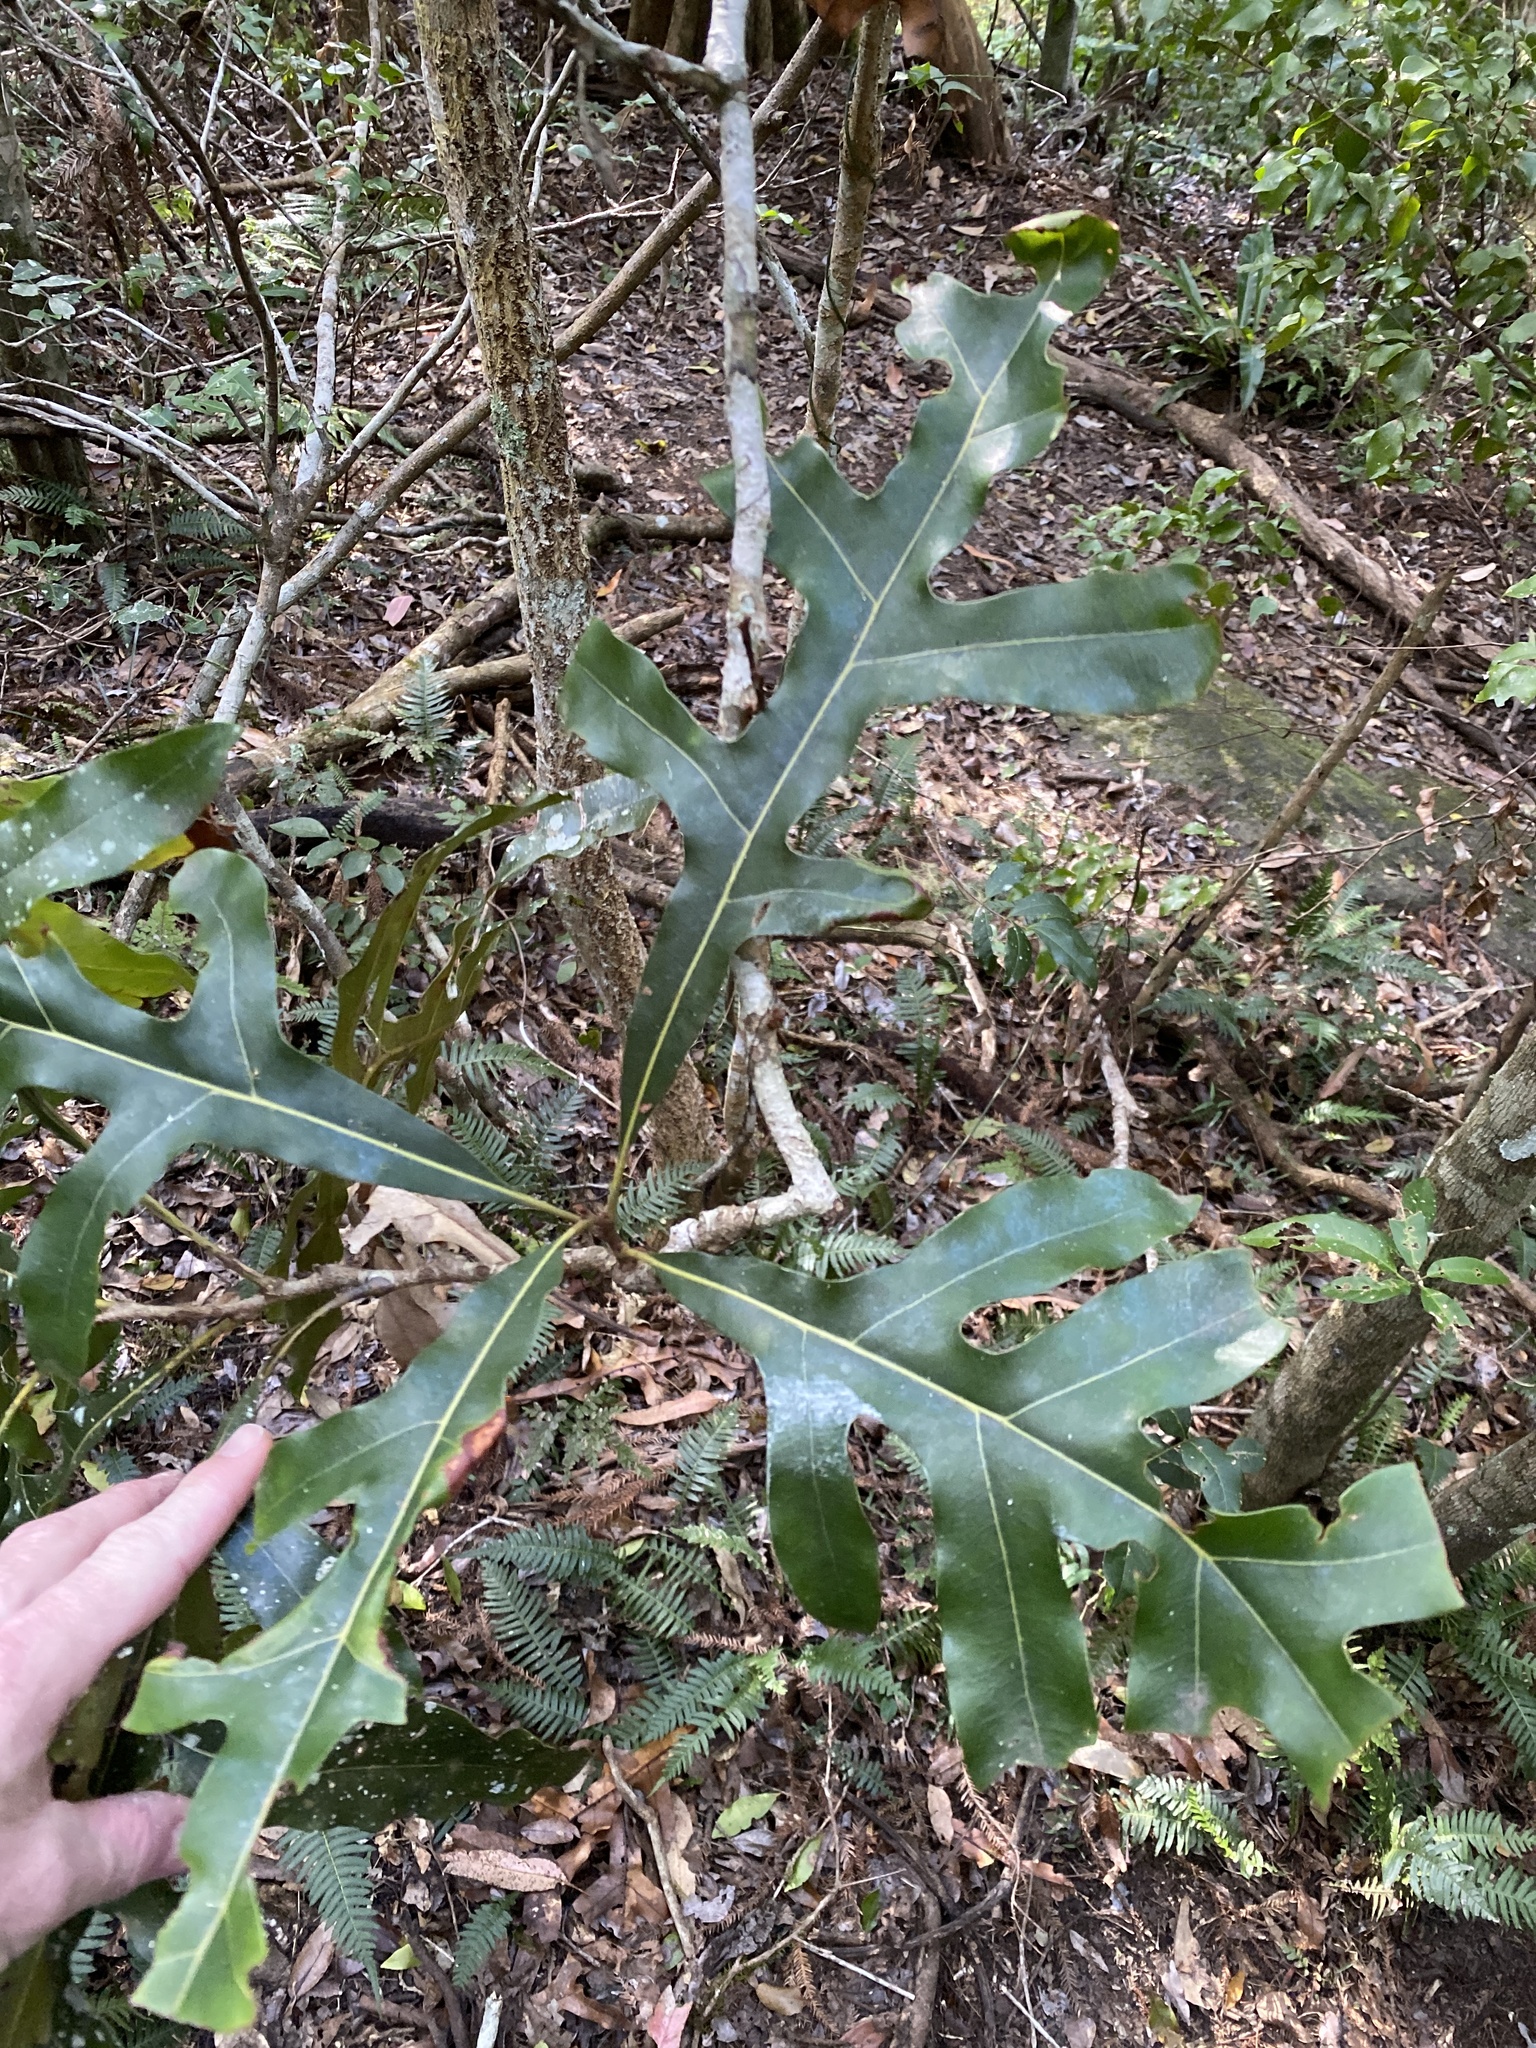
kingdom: Plantae
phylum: Tracheophyta
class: Magnoliopsida
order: Proteales
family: Proteaceae
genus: Stenocarpus
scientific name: Stenocarpus sinuatus
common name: Queensland fire-wheel-tree
